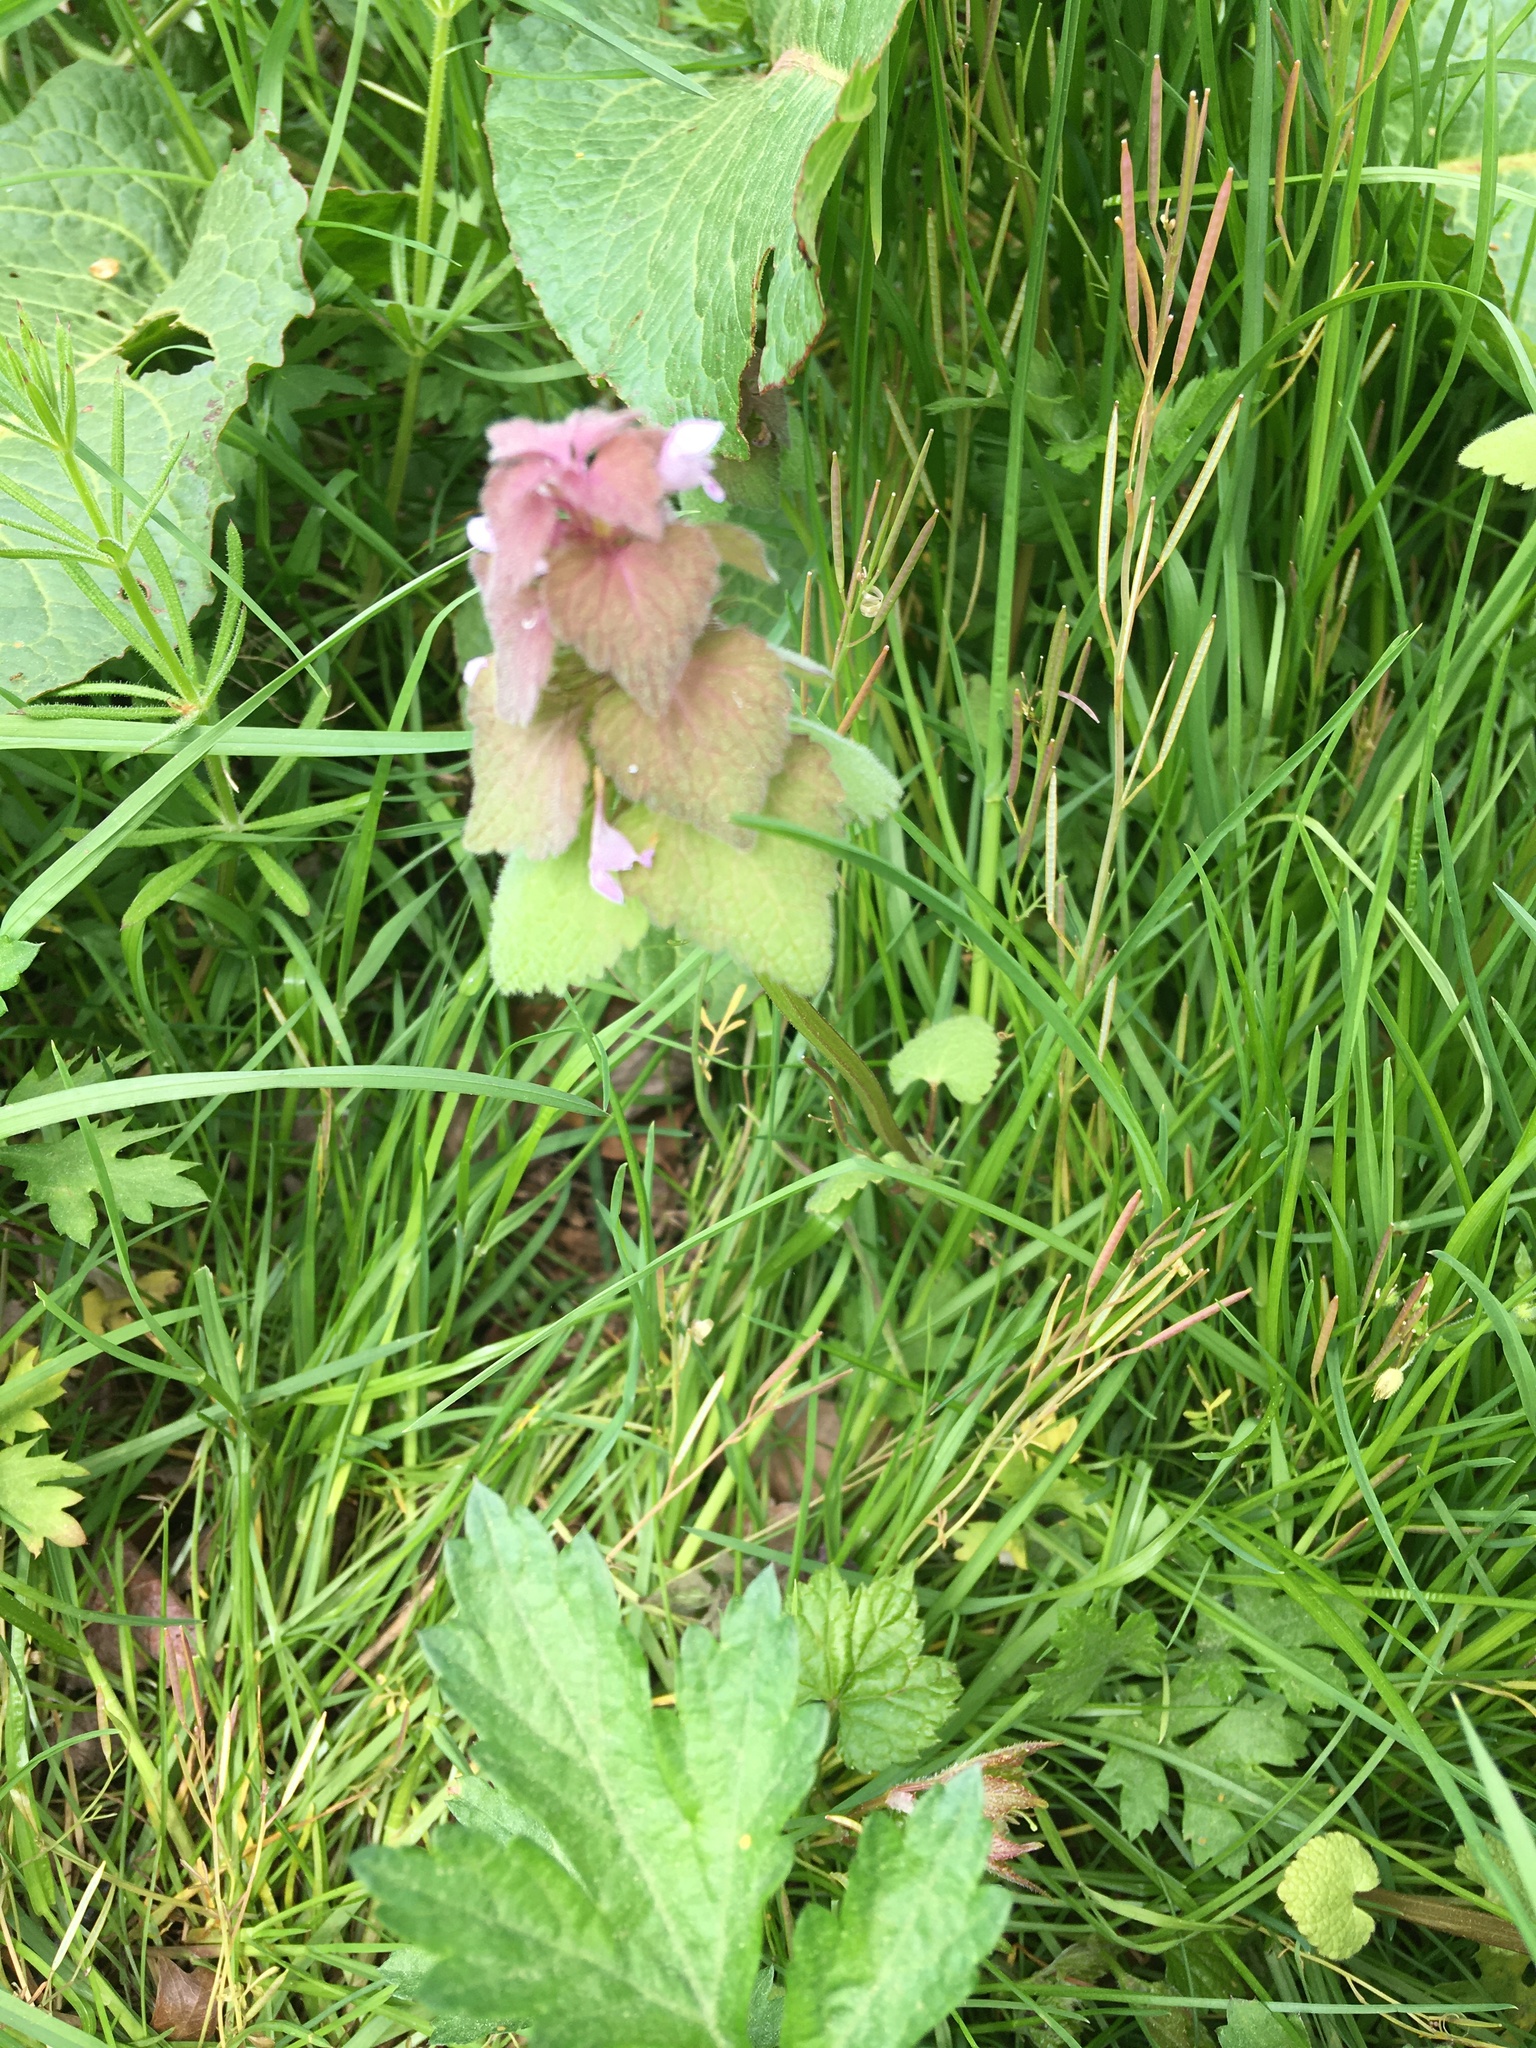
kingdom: Plantae
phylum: Tracheophyta
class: Magnoliopsida
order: Lamiales
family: Lamiaceae
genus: Lamium
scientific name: Lamium purpureum
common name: Red dead-nettle
